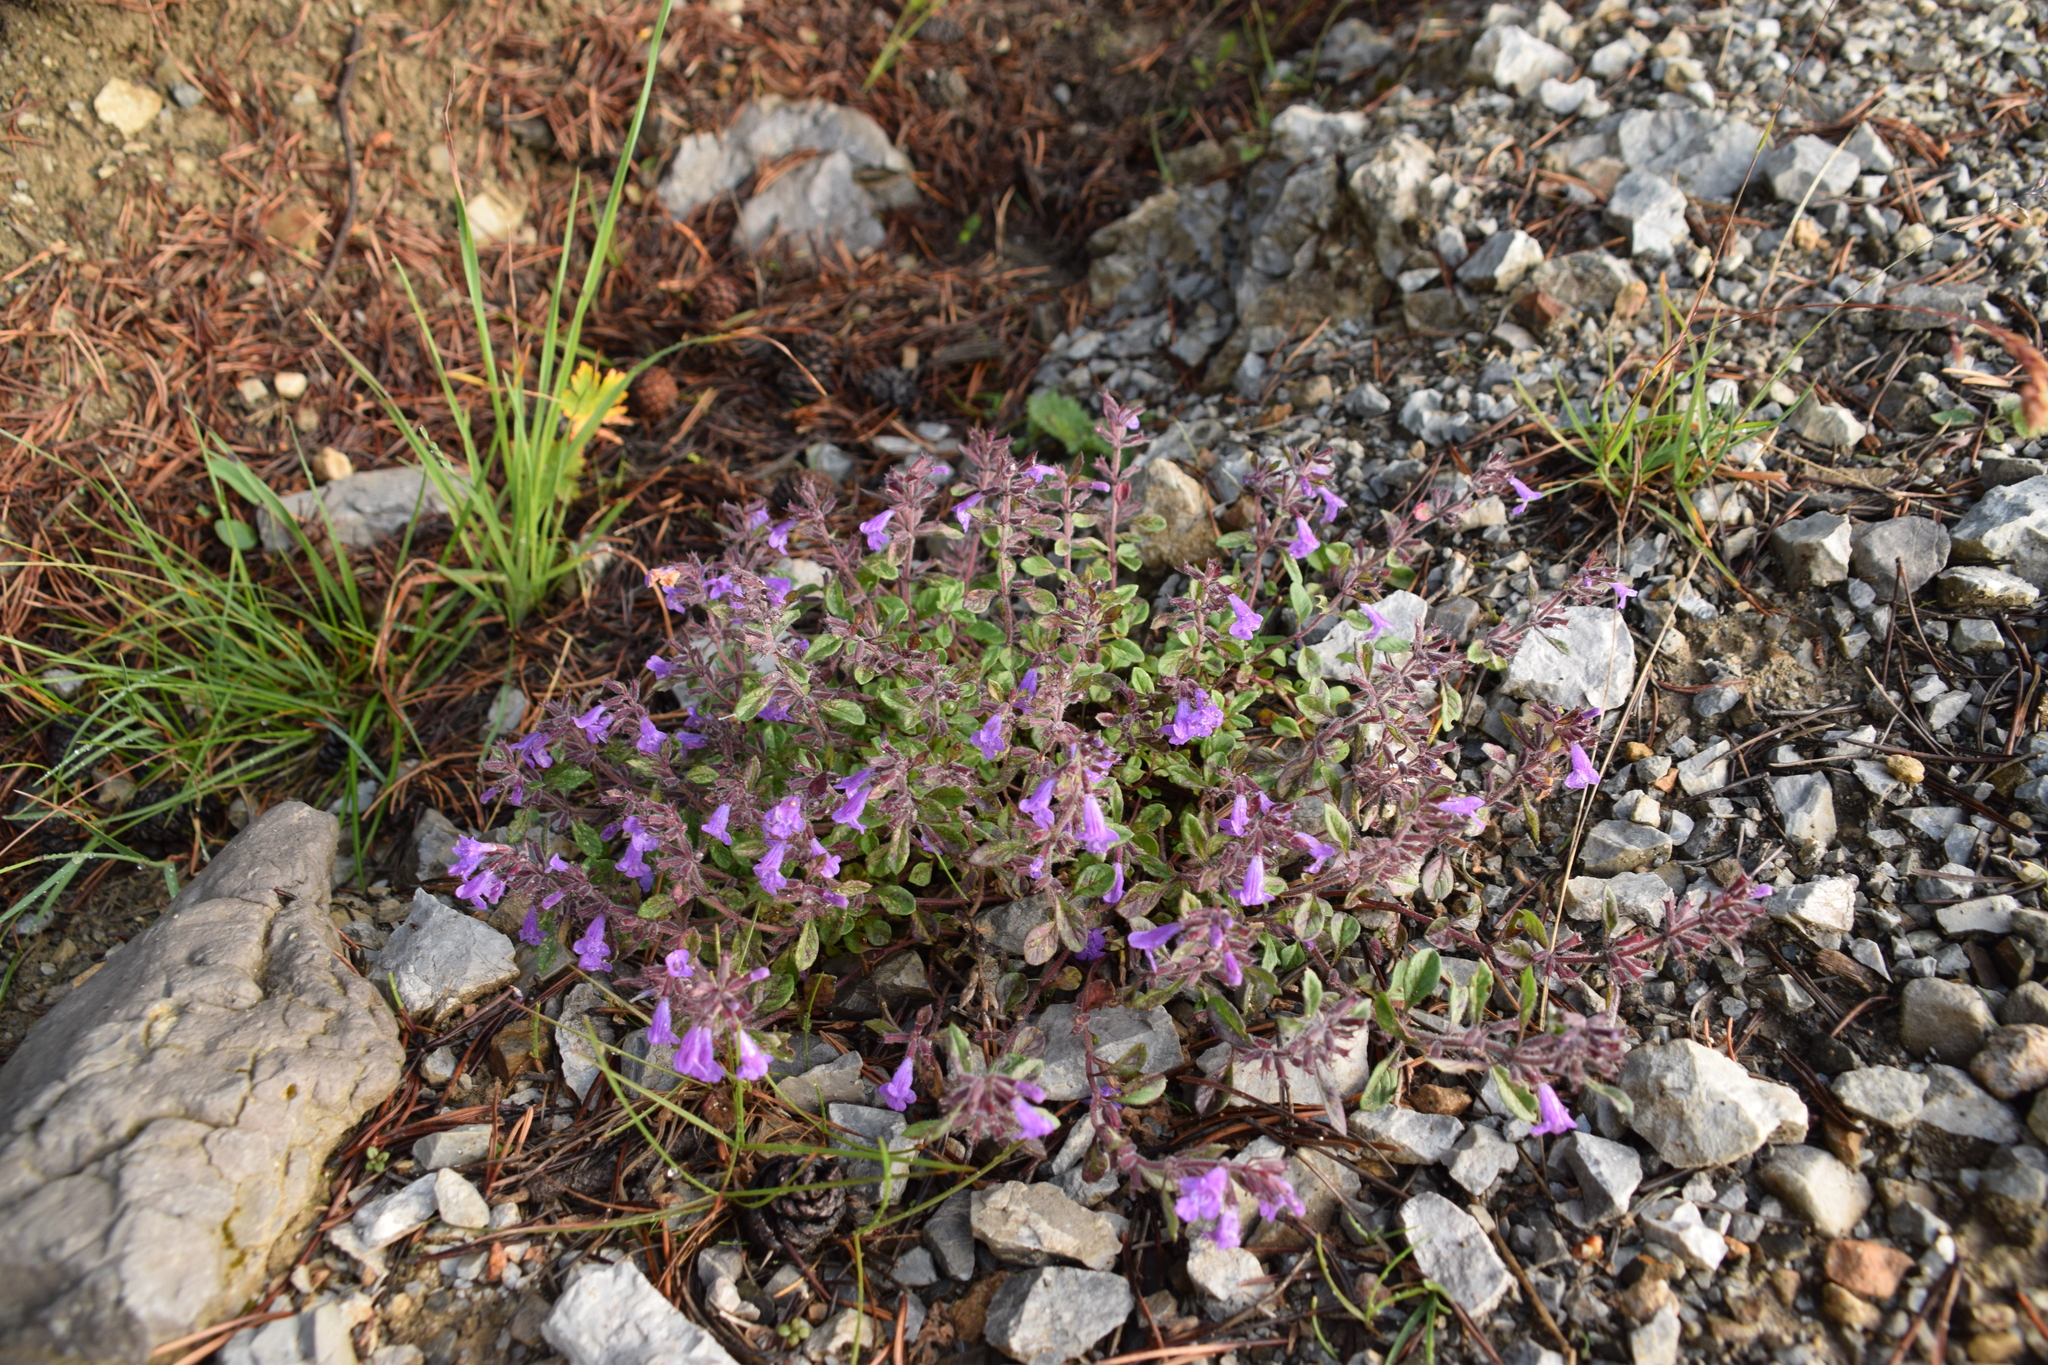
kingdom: Plantae
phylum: Tracheophyta
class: Magnoliopsida
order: Lamiales
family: Lamiaceae
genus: Clinopodium
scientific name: Clinopodium alpinum
